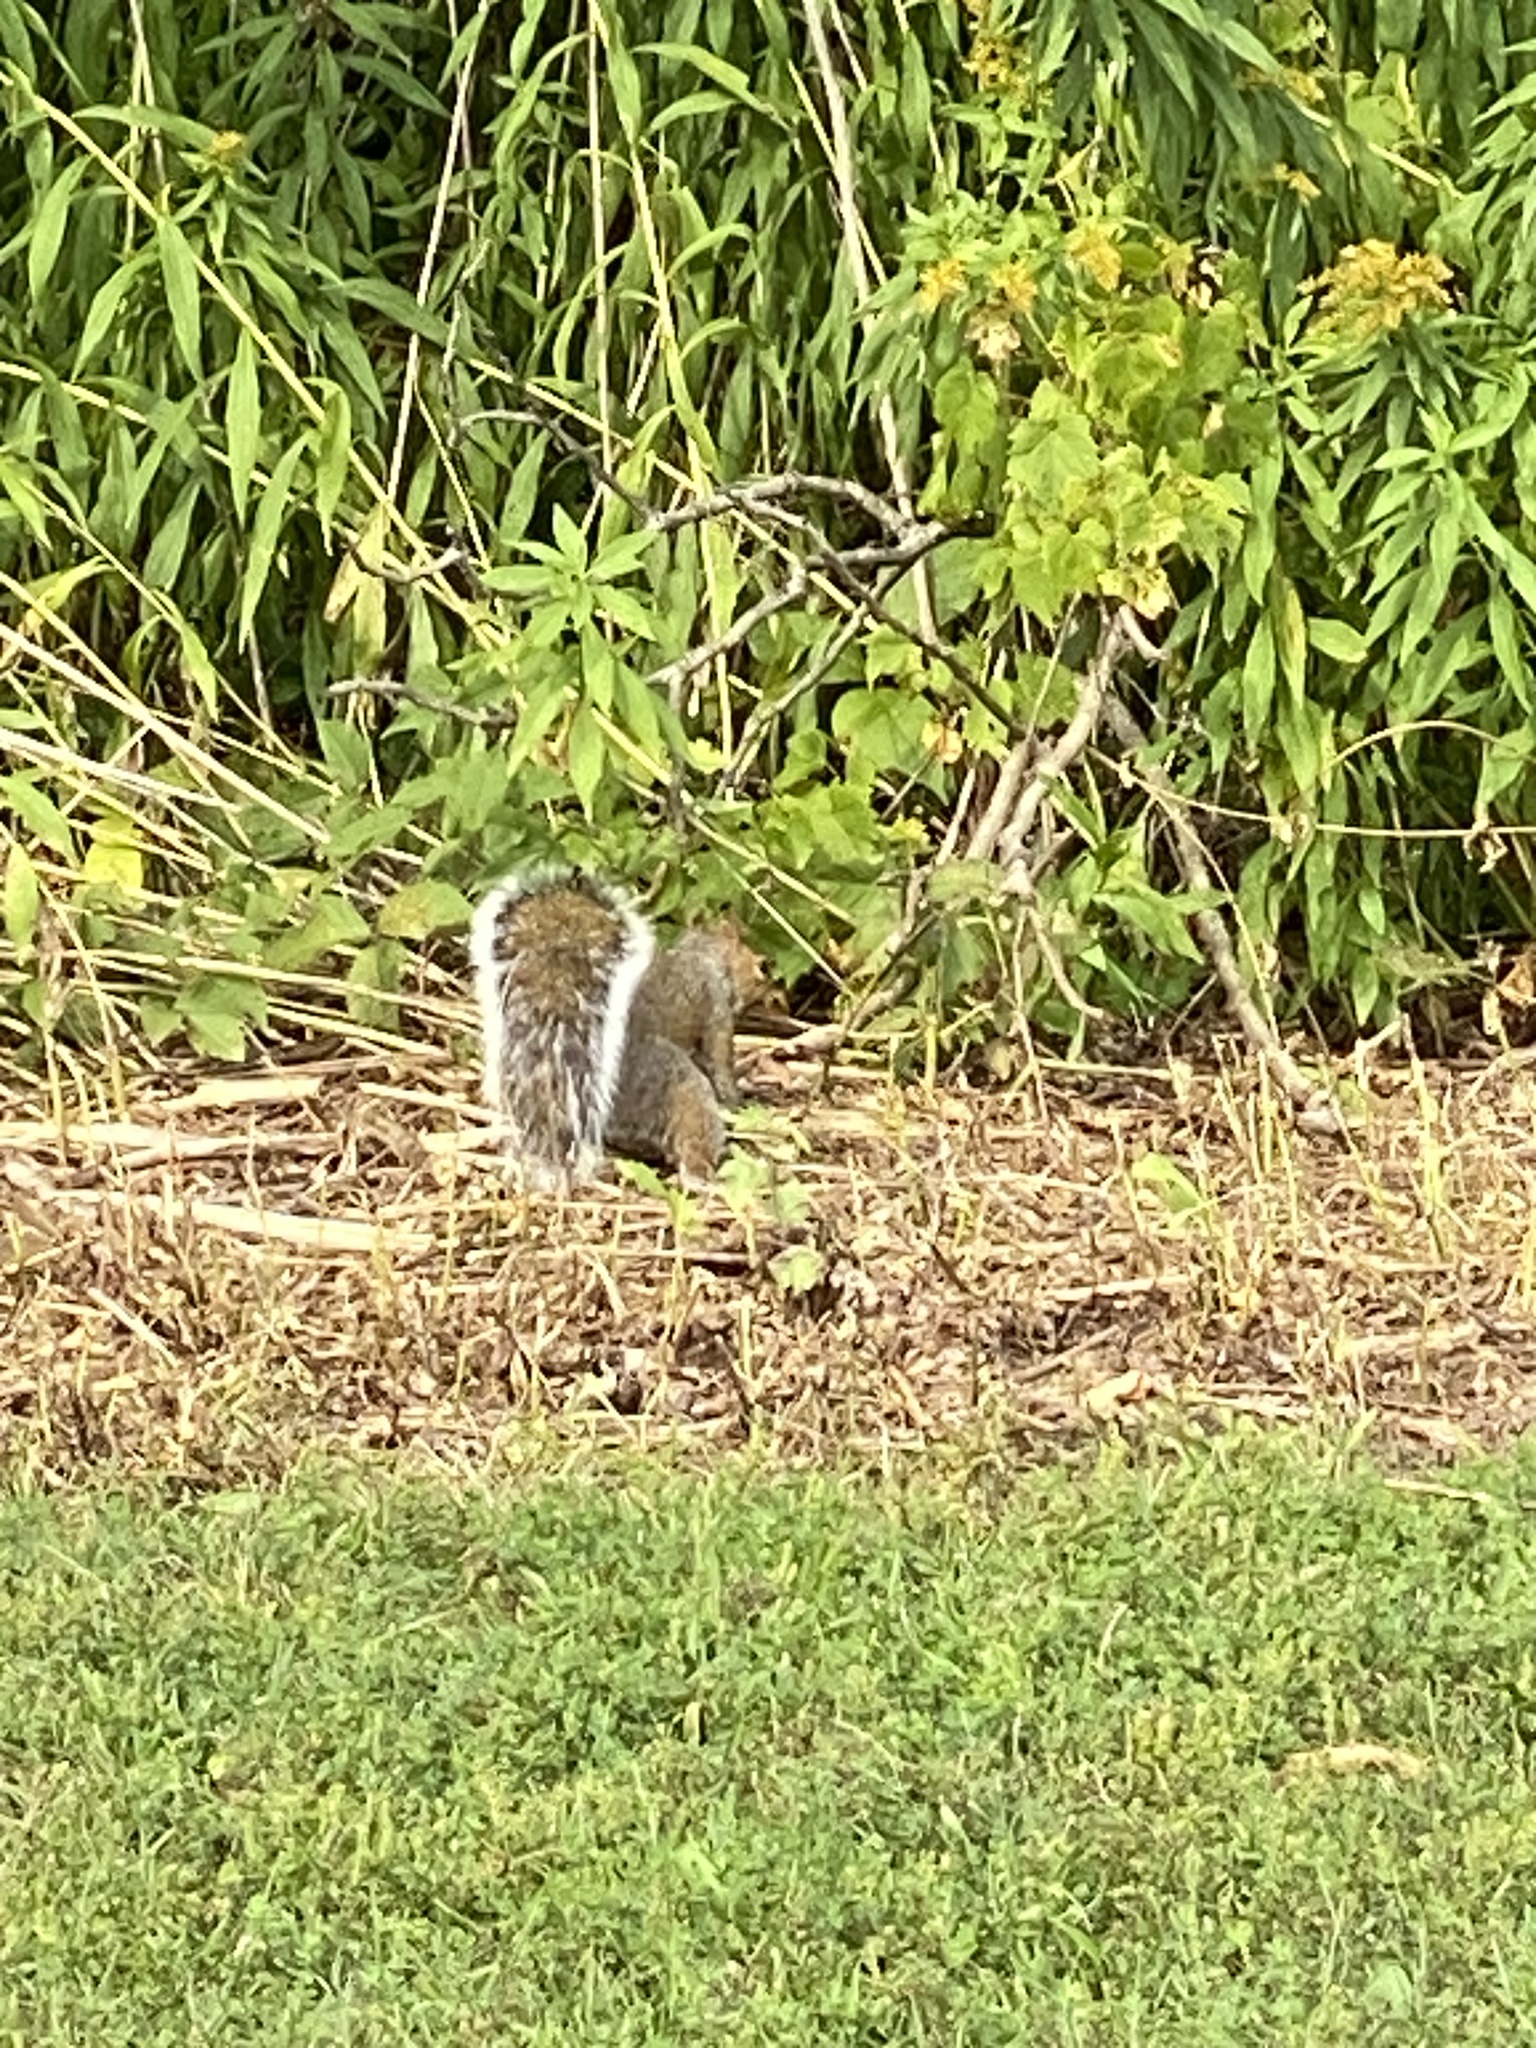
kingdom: Animalia
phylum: Chordata
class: Mammalia
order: Rodentia
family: Sciuridae
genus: Sciurus
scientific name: Sciurus carolinensis
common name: Eastern gray squirrel
